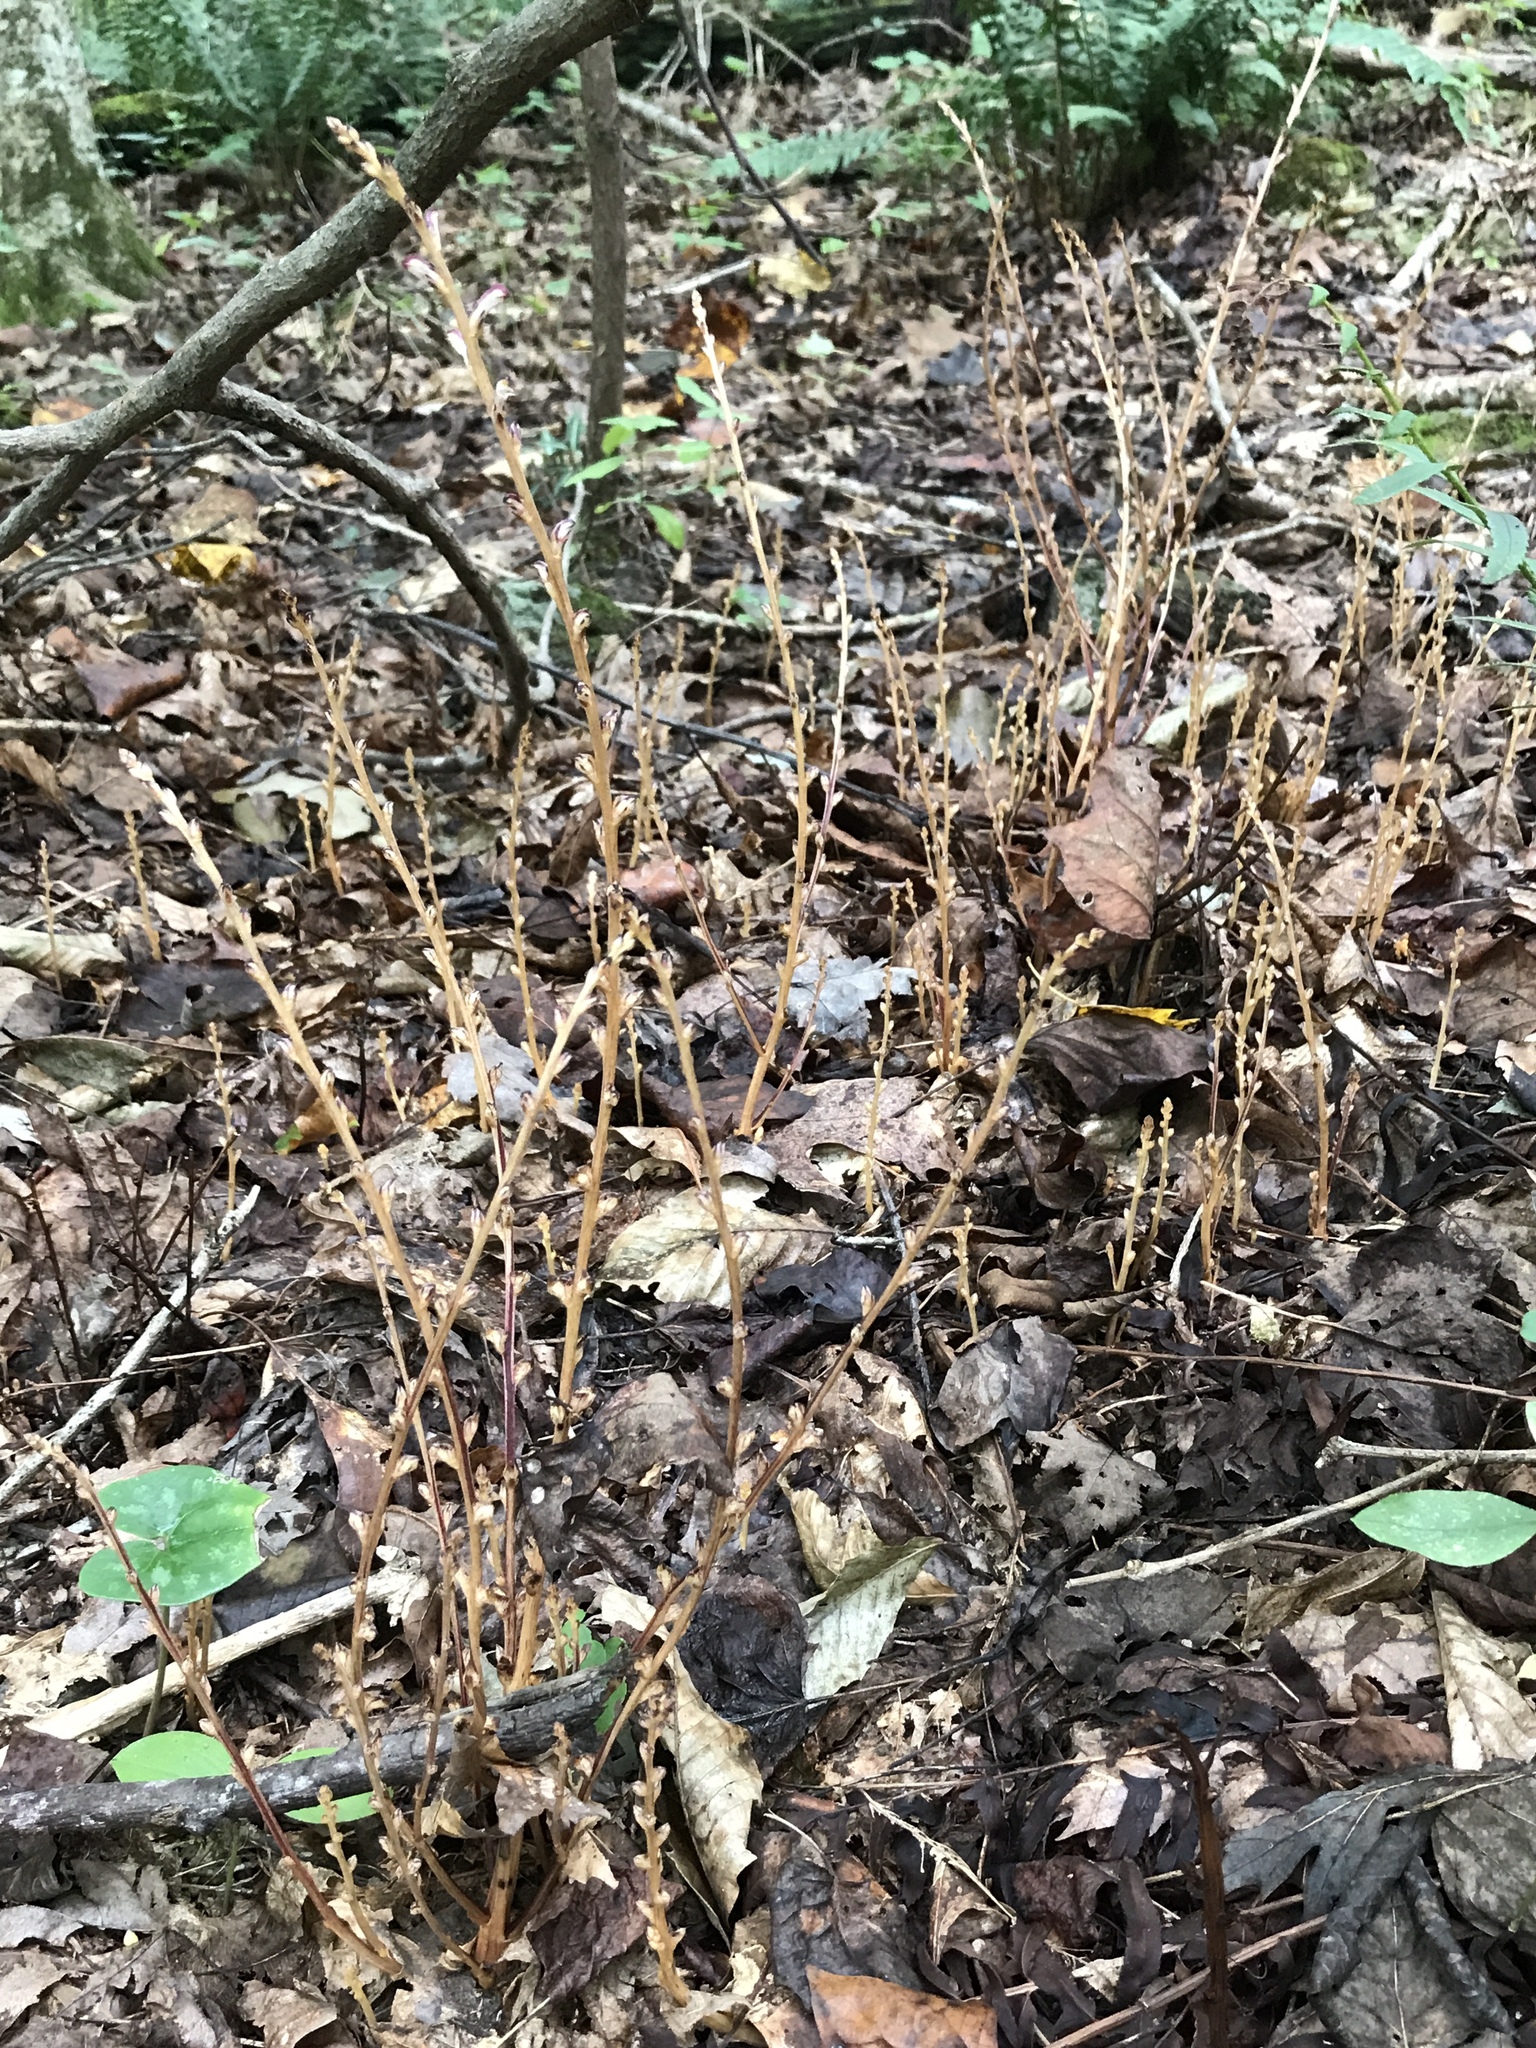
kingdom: Plantae
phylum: Tracheophyta
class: Magnoliopsida
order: Lamiales
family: Orobanchaceae
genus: Epifagus
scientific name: Epifagus virginiana
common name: Beechdrops
